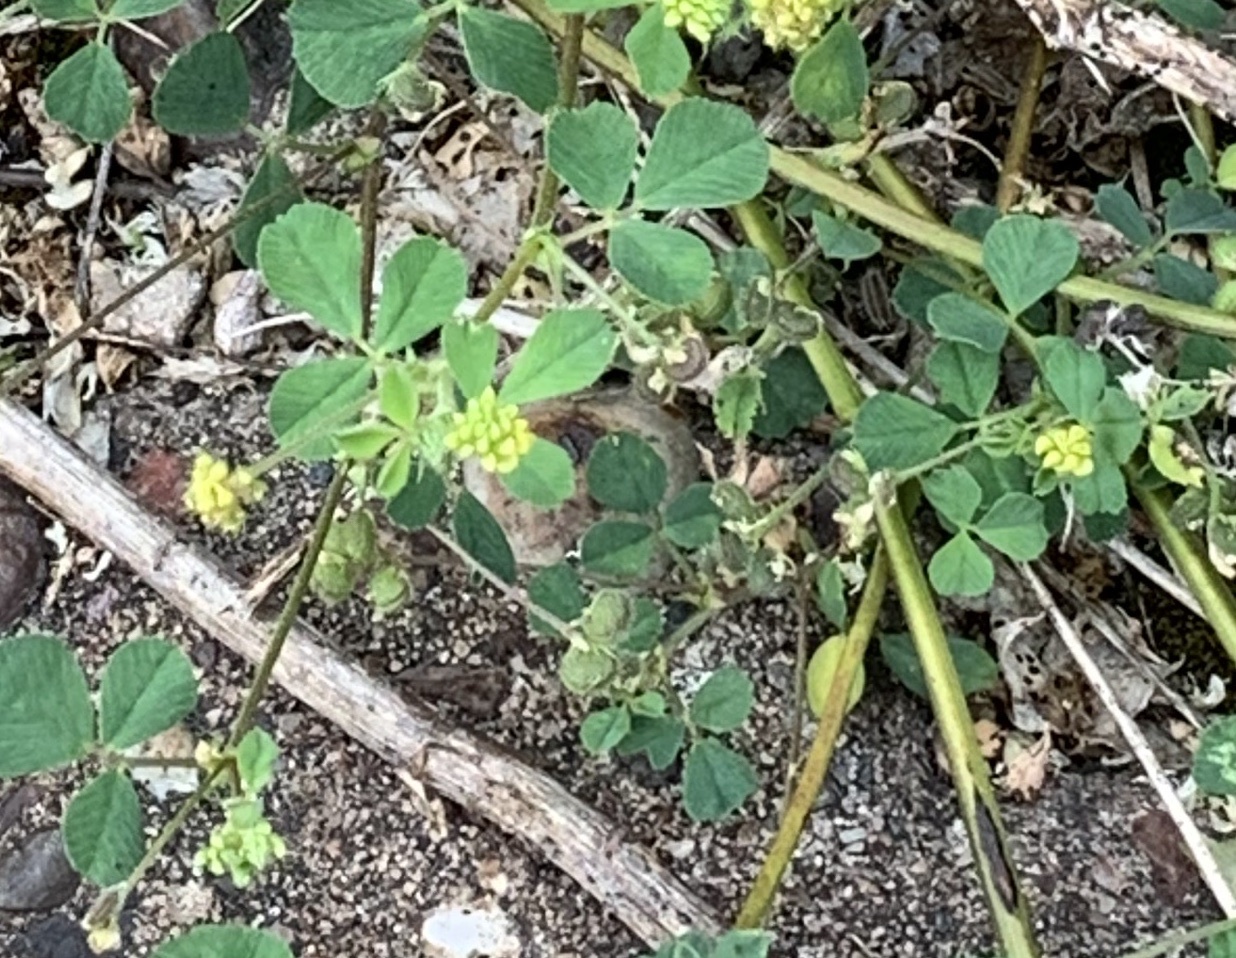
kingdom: Plantae
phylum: Tracheophyta
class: Magnoliopsida
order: Fabales
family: Fabaceae
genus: Medicago
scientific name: Medicago lupulina
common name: Black medick
